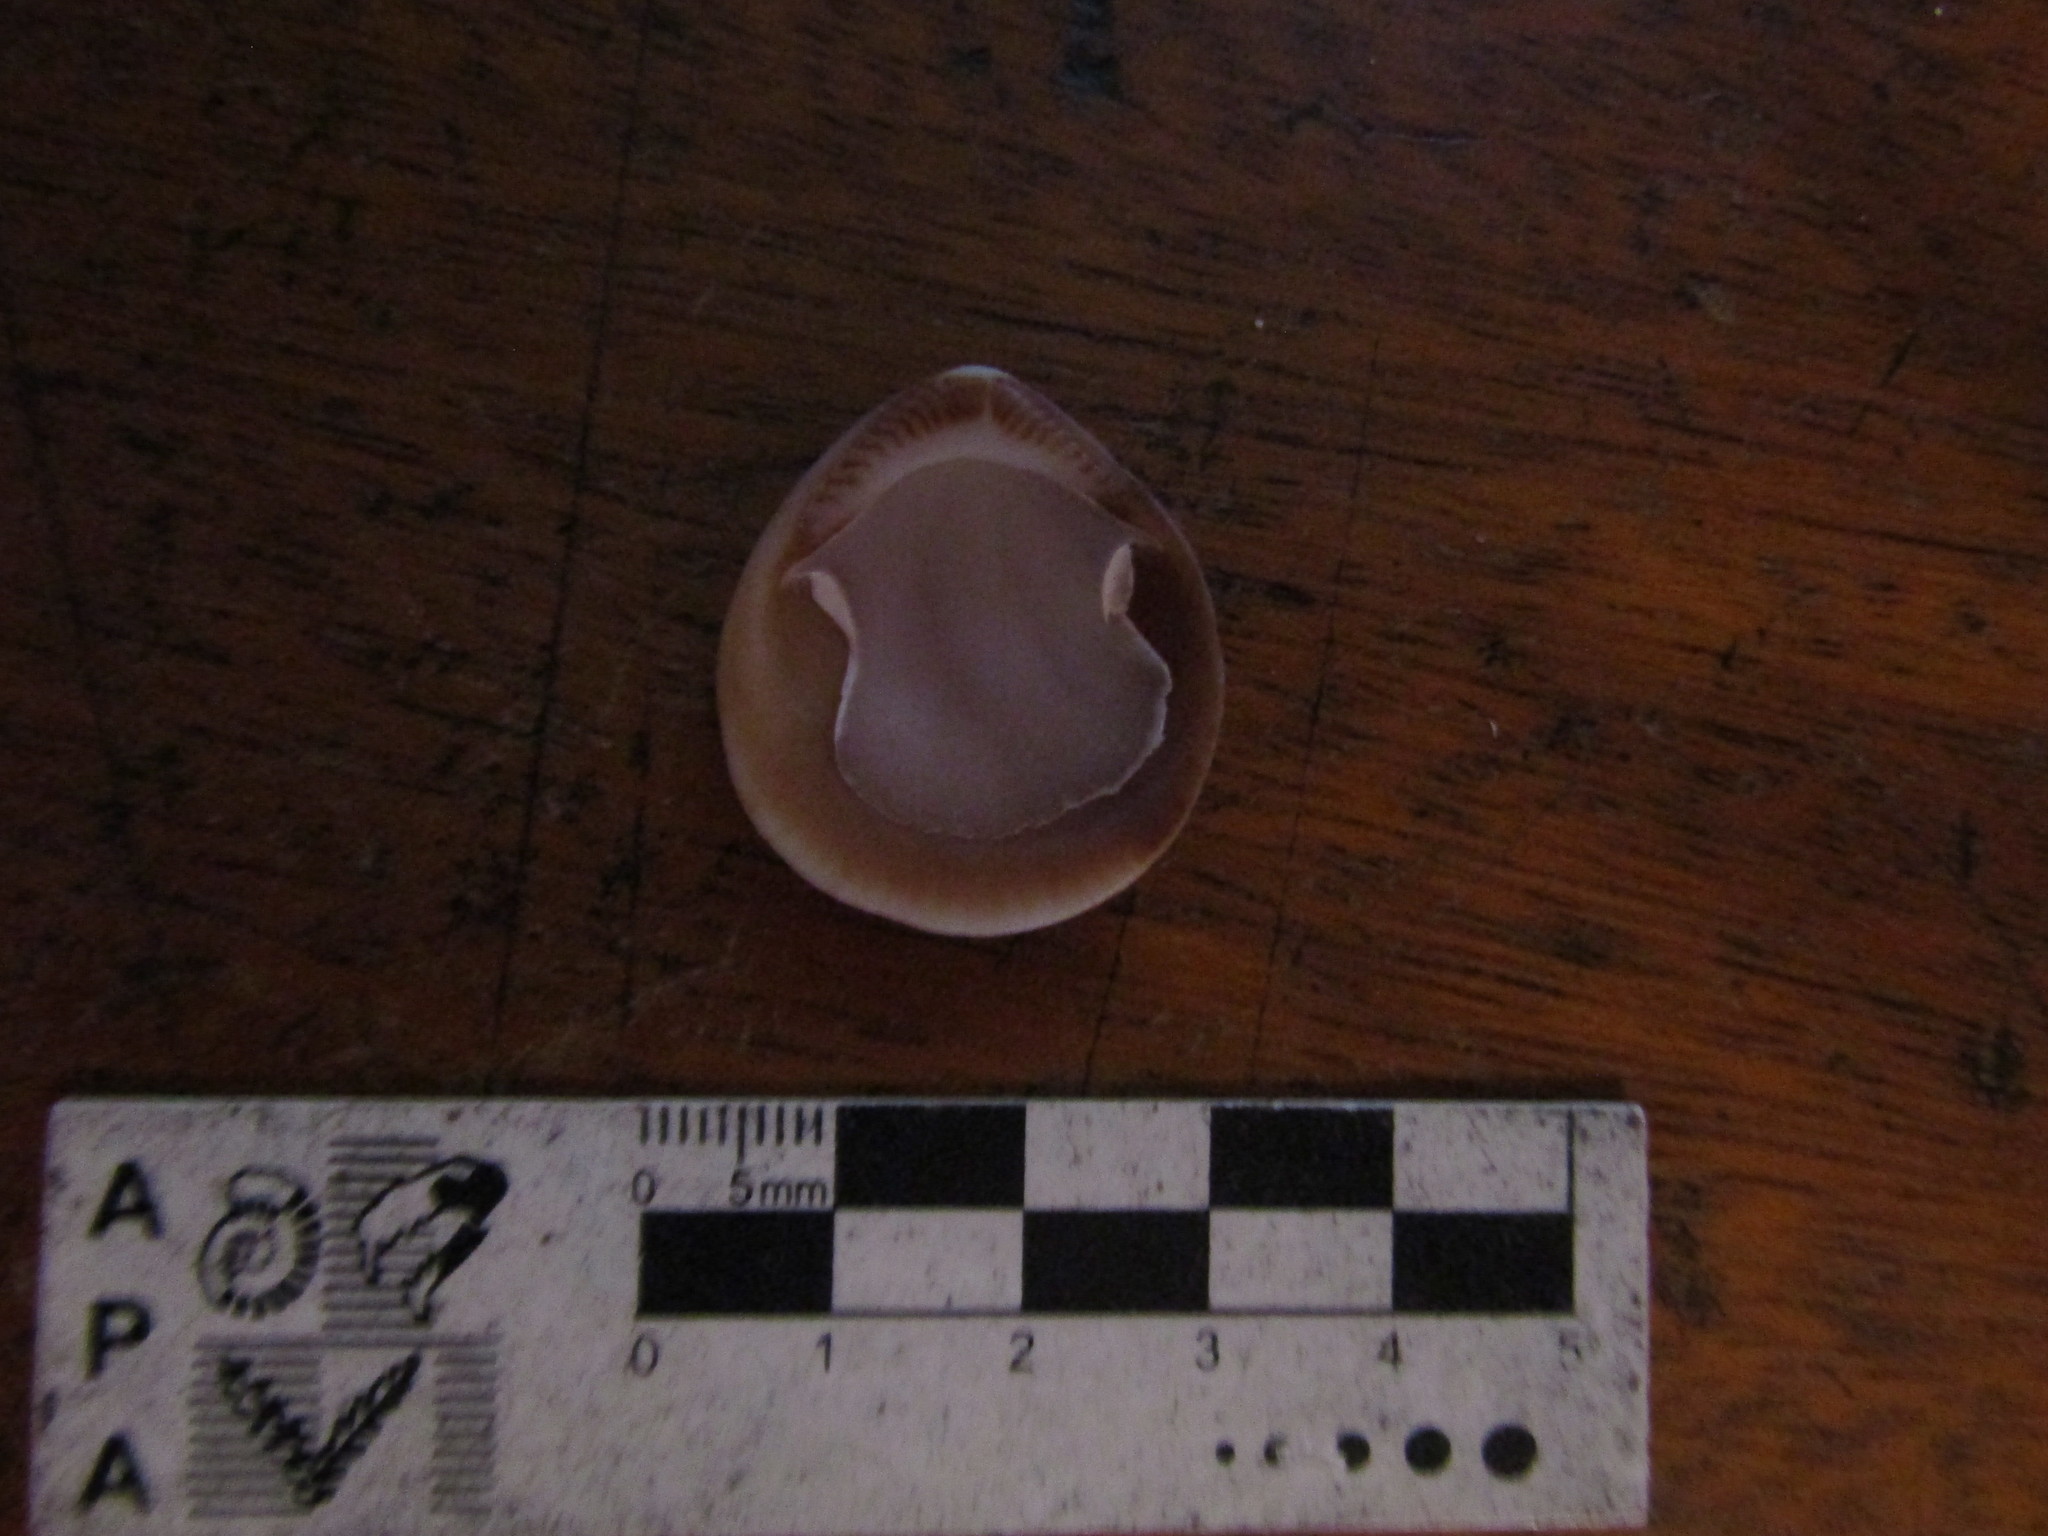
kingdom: Animalia
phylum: Mollusca
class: Bivalvia
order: Arcida
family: Glycymerididae
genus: Glycymeris
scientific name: Glycymeris longior
